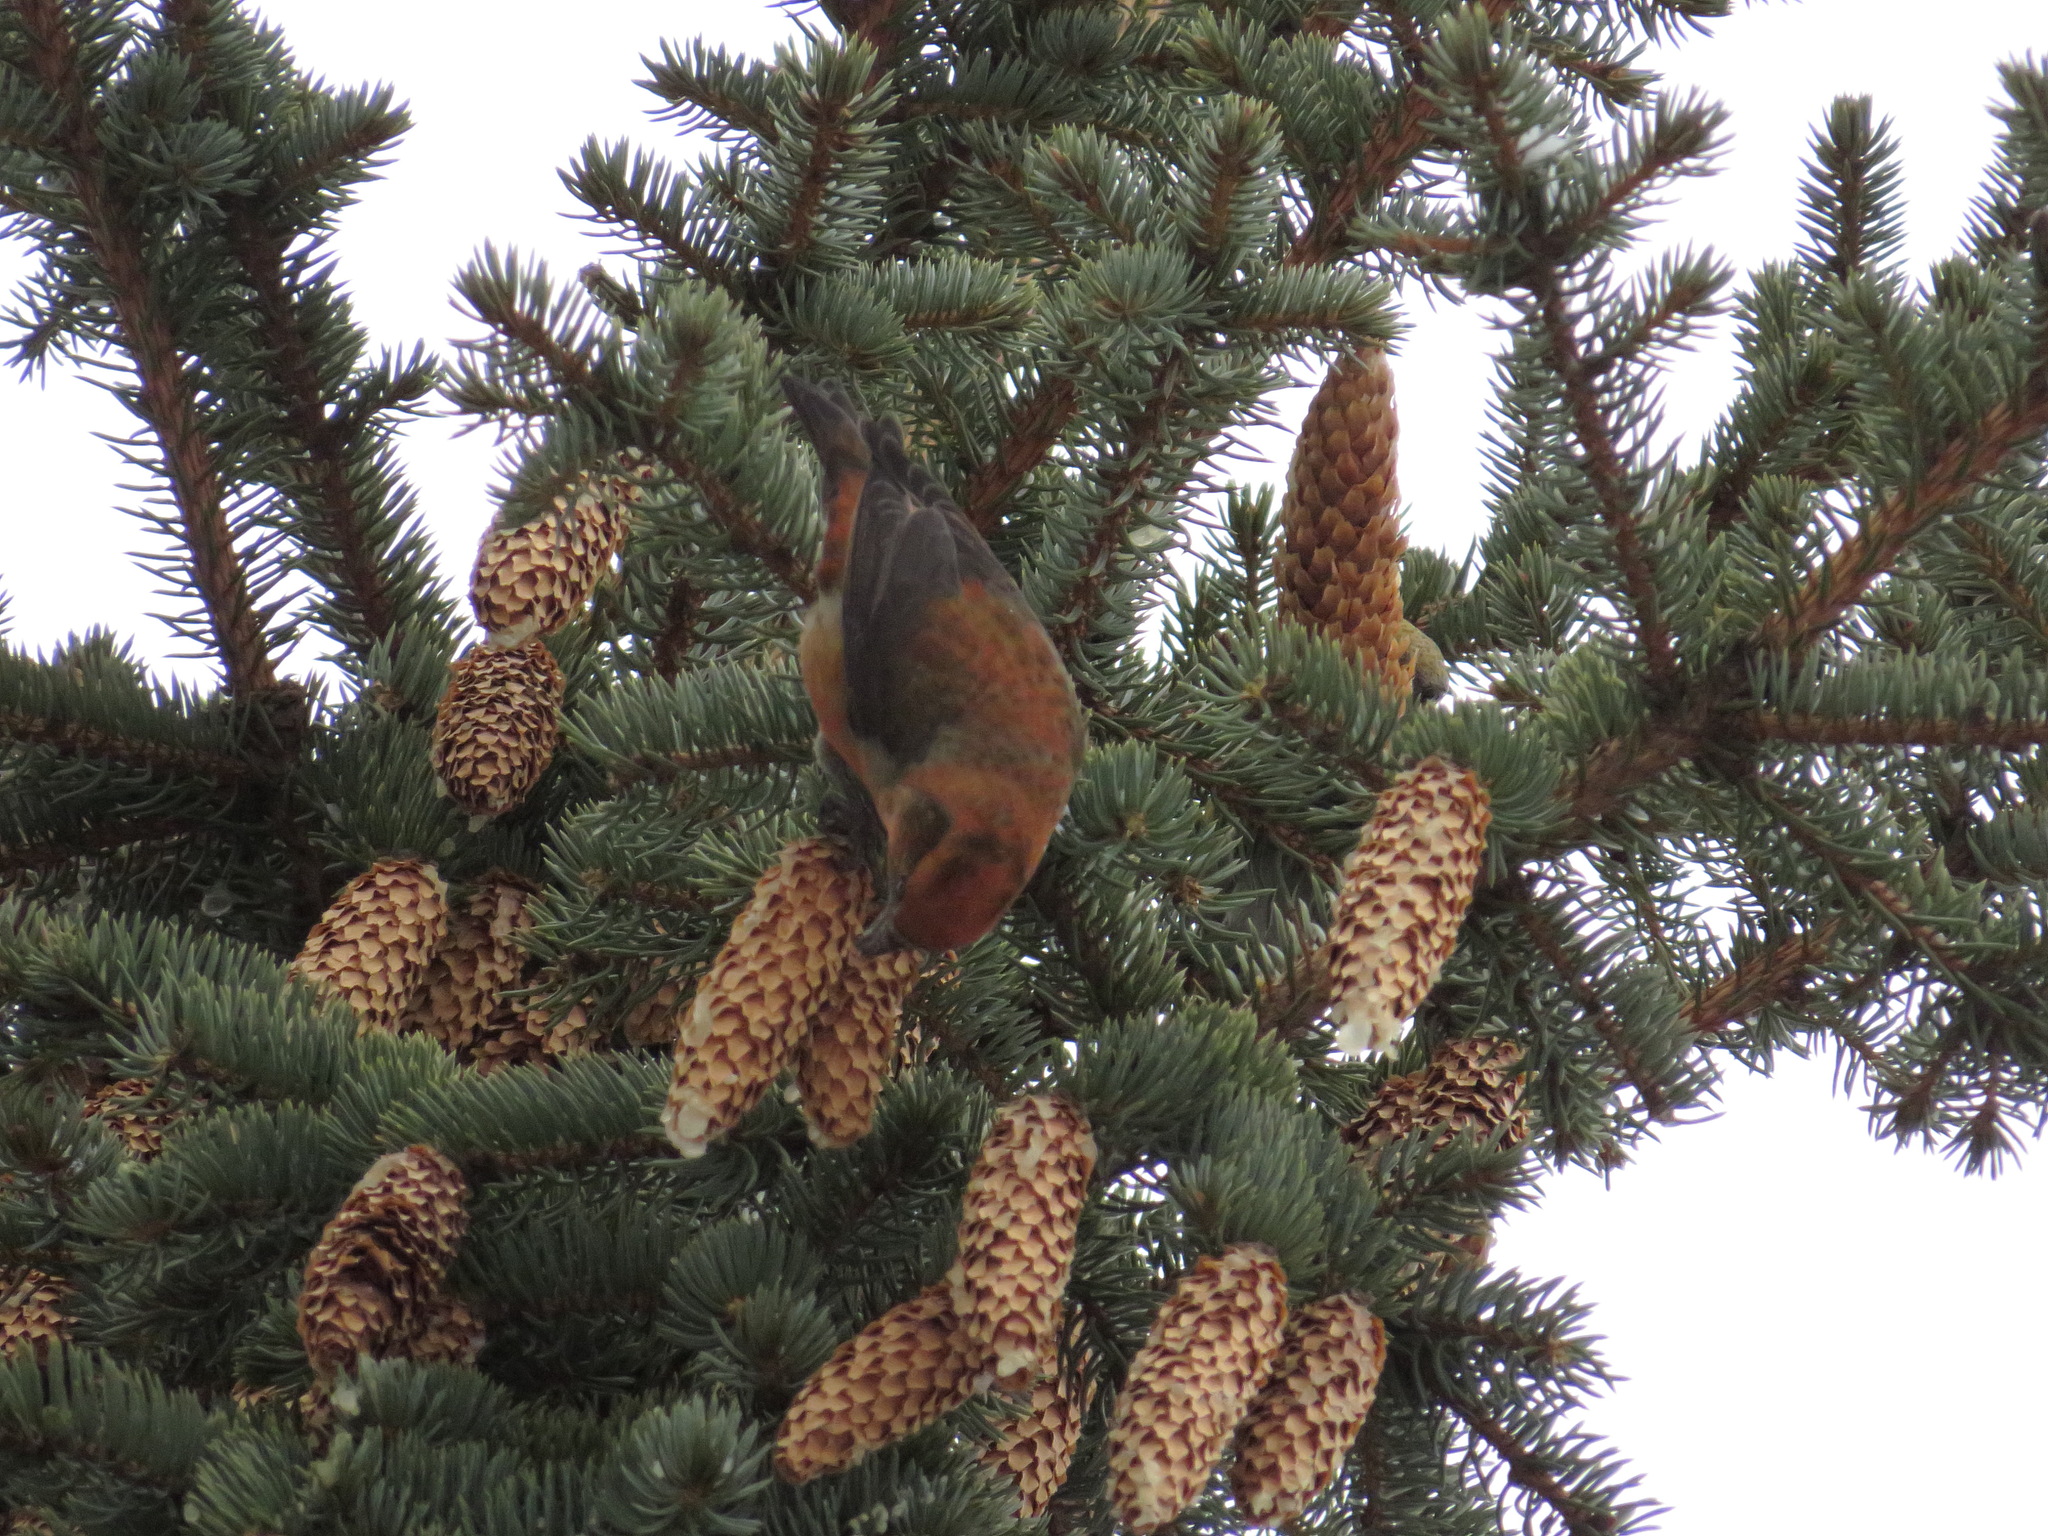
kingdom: Animalia
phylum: Chordata
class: Aves
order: Passeriformes
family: Fringillidae
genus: Loxia
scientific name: Loxia curvirostra
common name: Red crossbill
